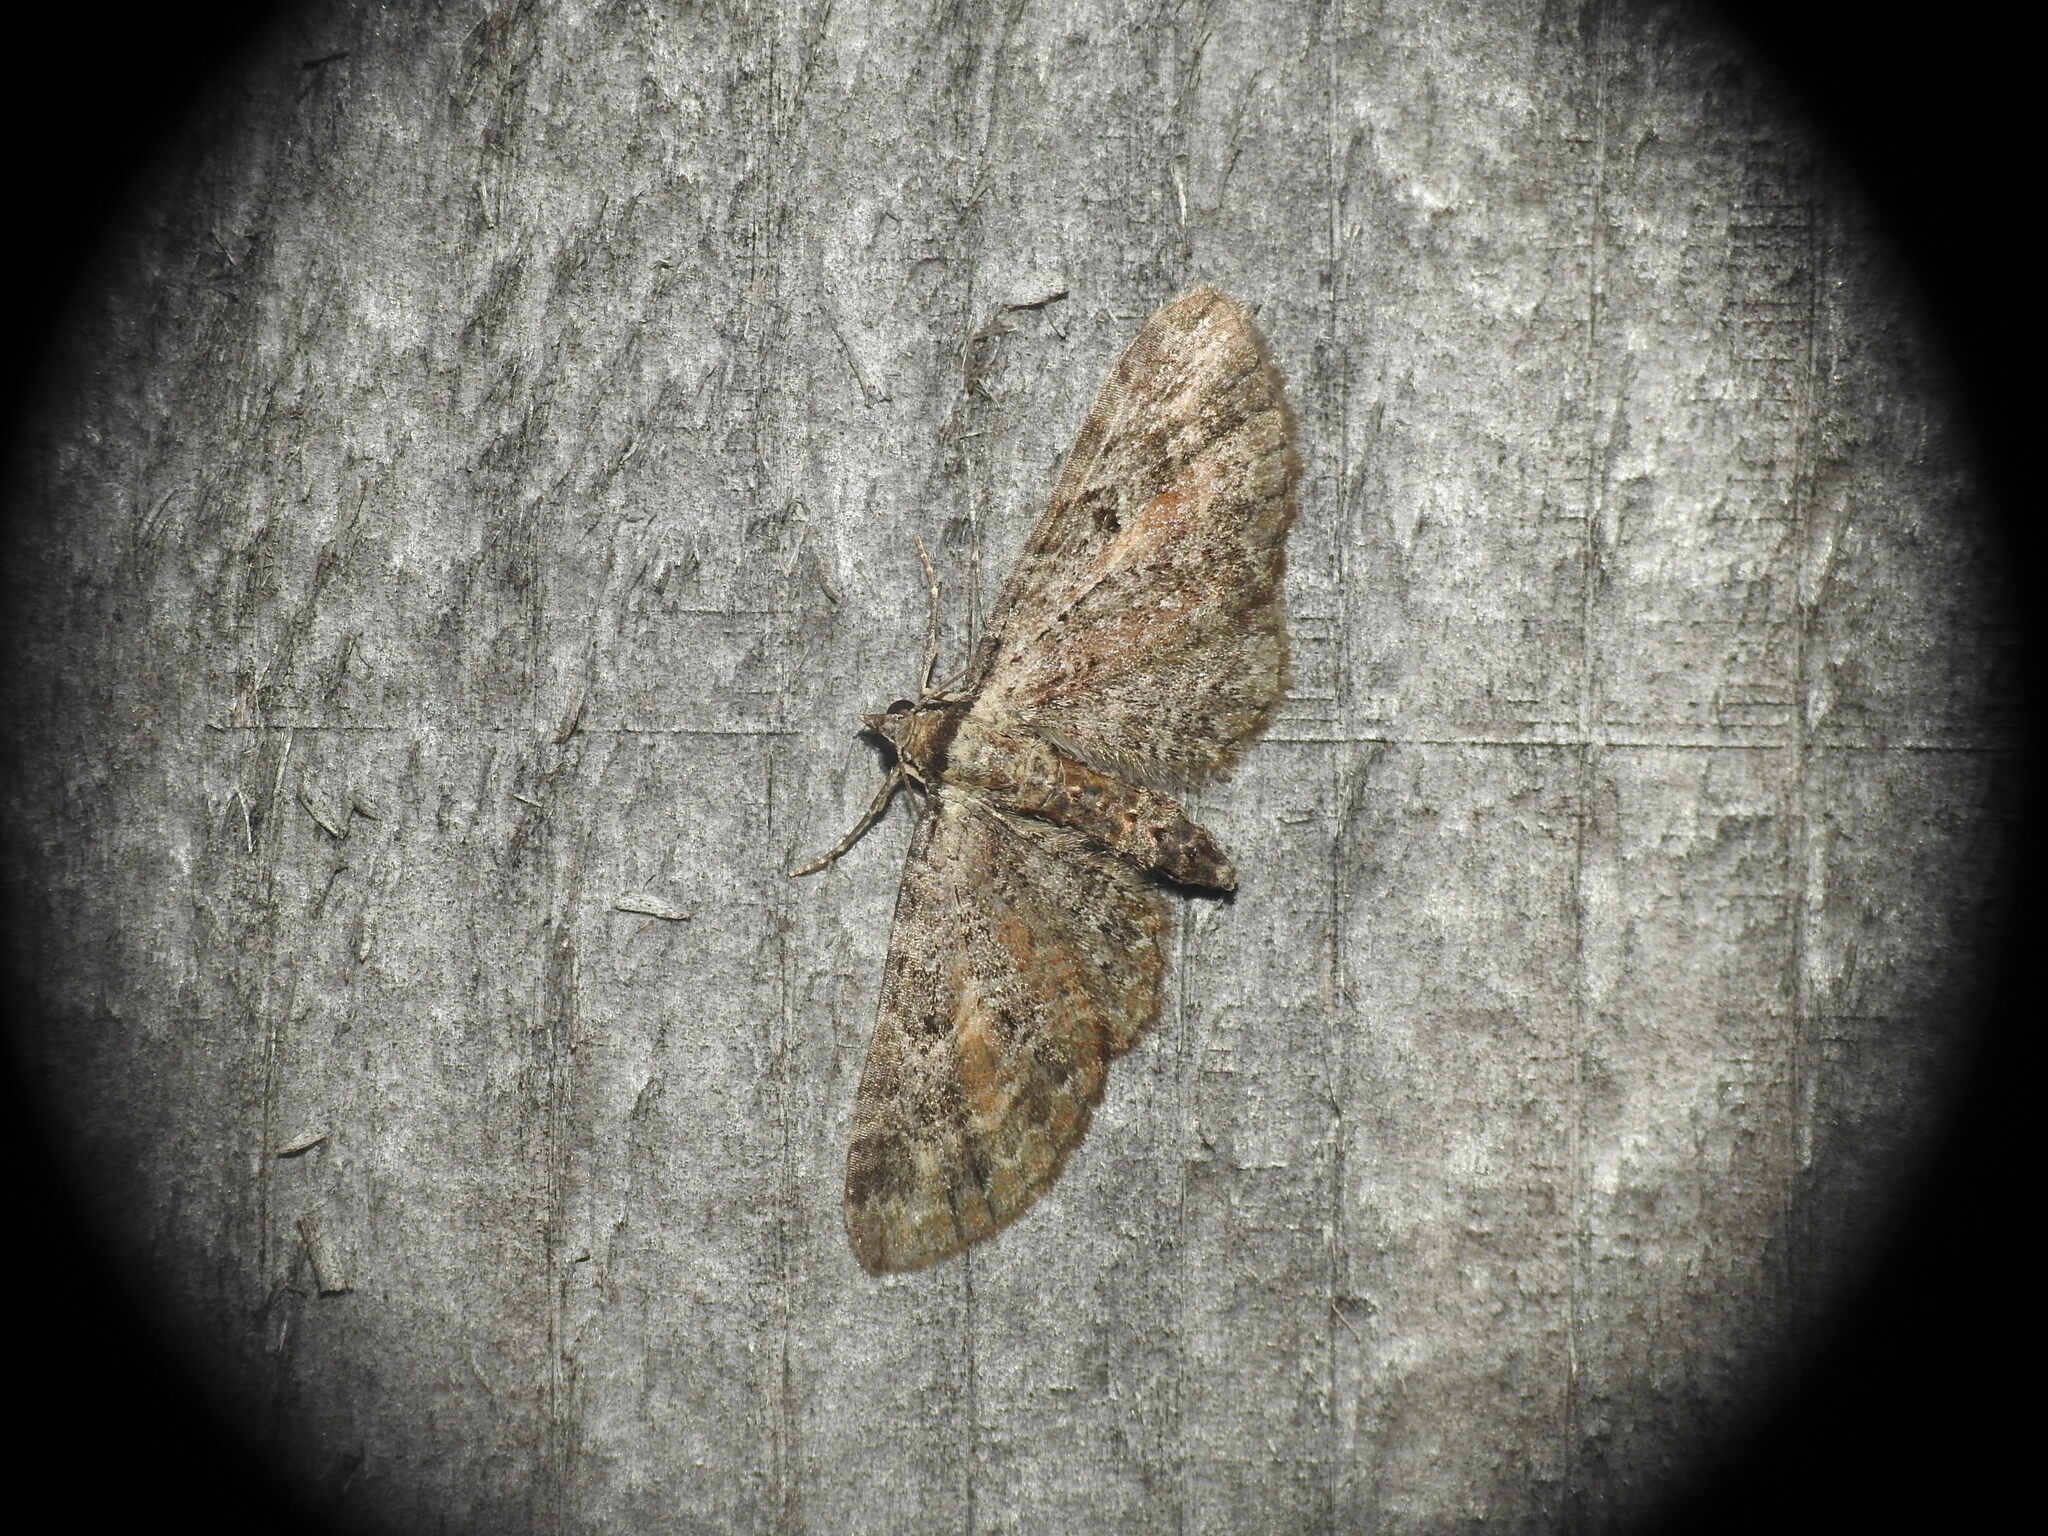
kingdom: Animalia
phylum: Arthropoda
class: Insecta
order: Lepidoptera
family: Geometridae
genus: Eupithecia
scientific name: Eupithecia icterata
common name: Tawny speckled pug
